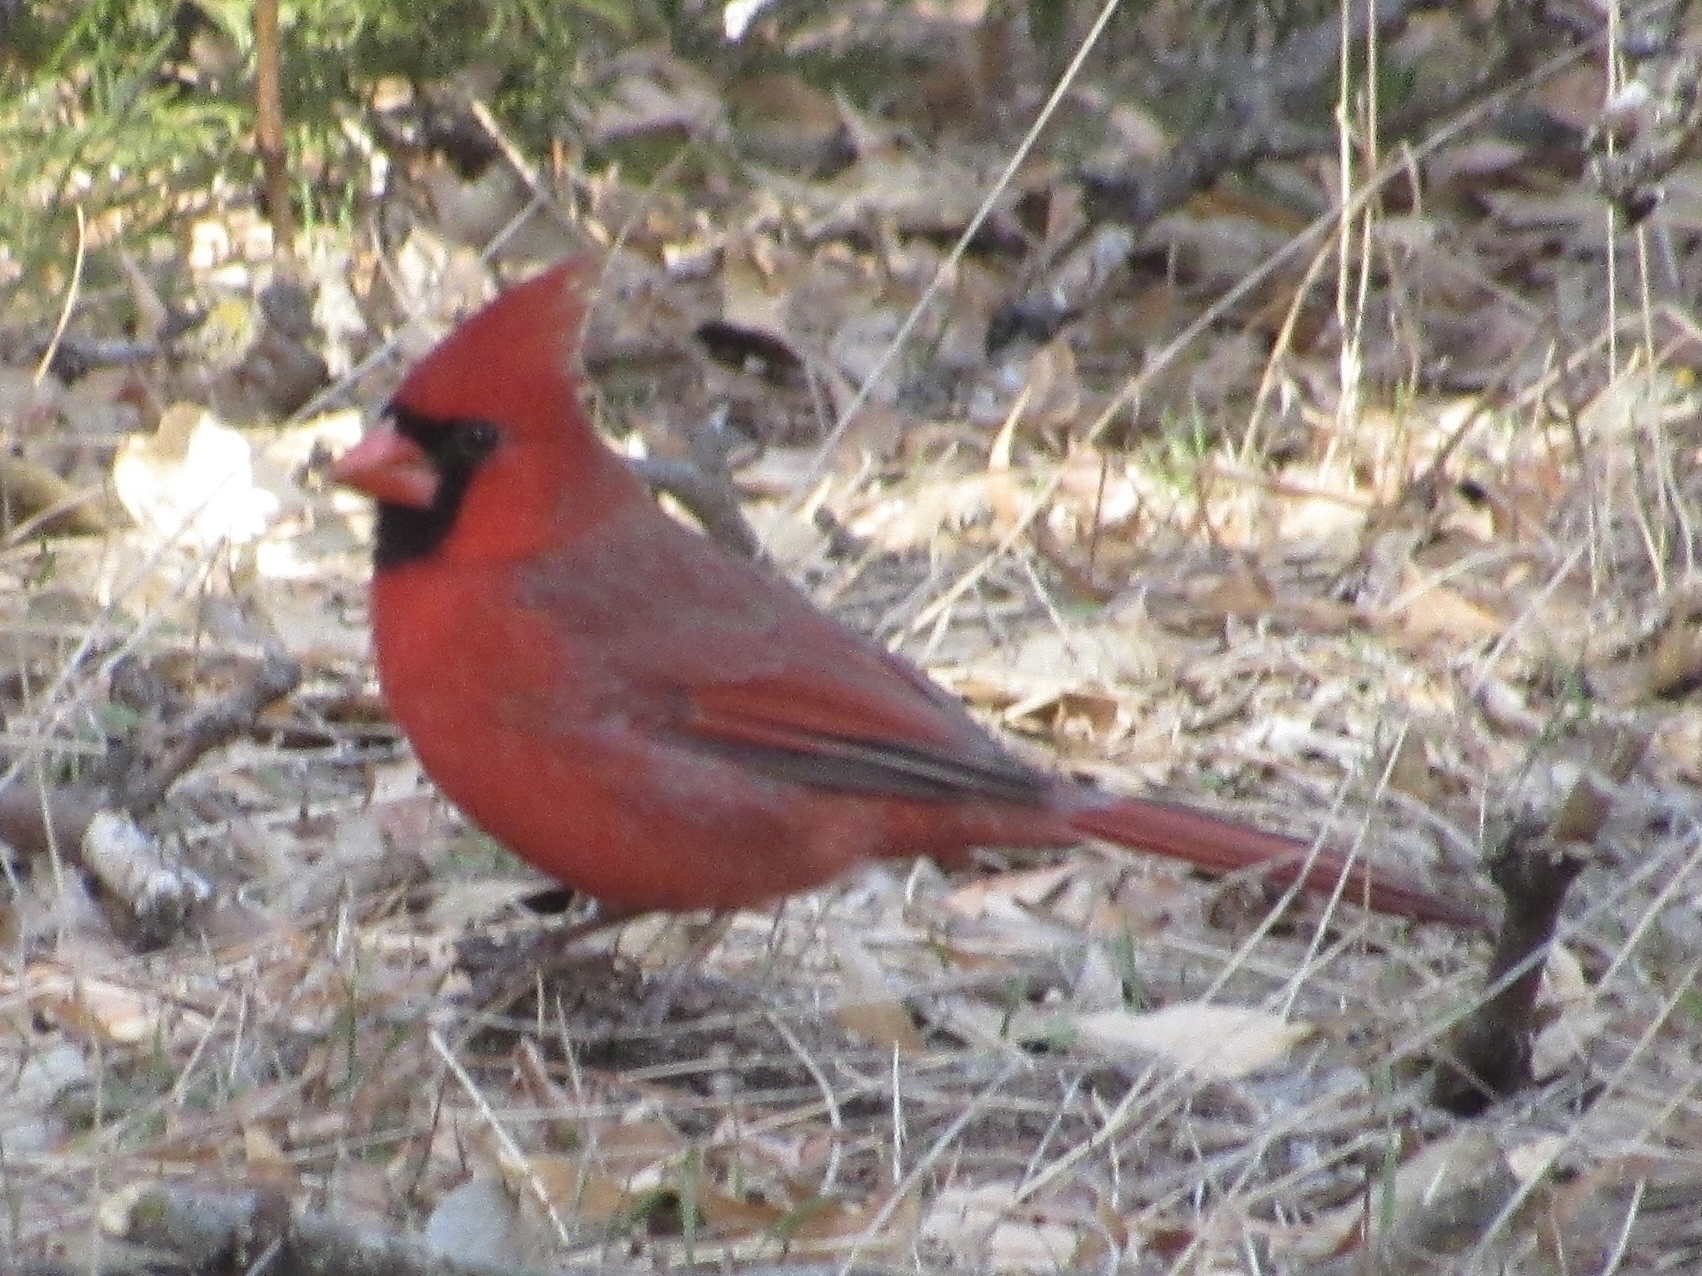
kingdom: Animalia
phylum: Chordata
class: Aves
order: Passeriformes
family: Cardinalidae
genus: Cardinalis
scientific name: Cardinalis cardinalis
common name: Northern cardinal
